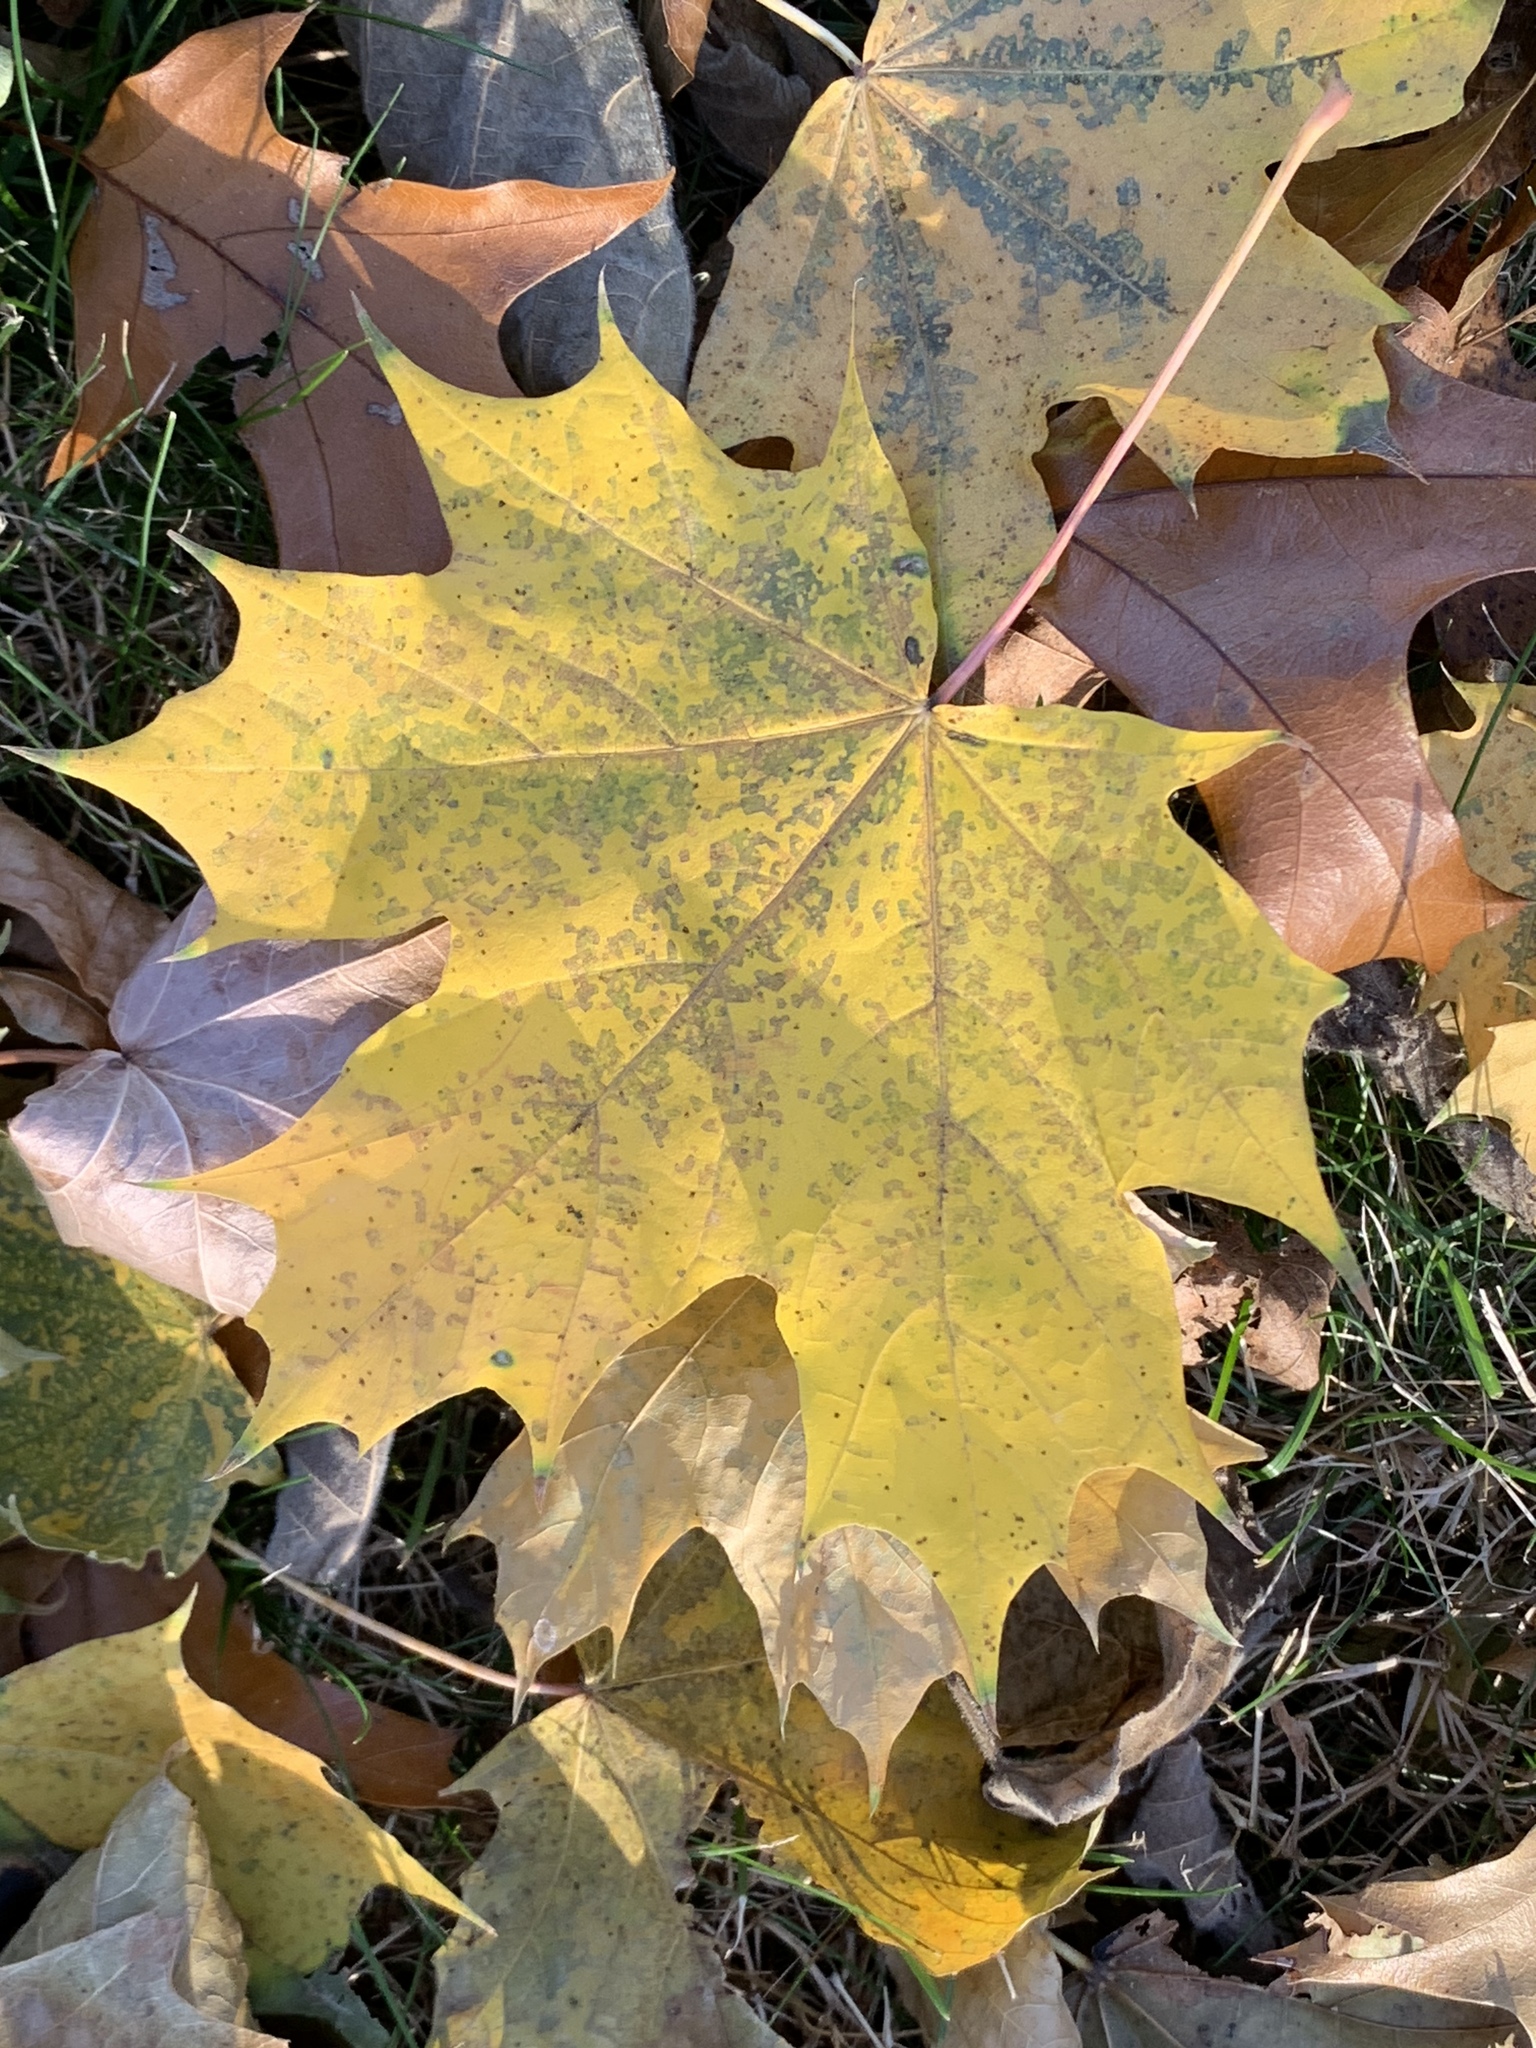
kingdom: Plantae
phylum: Tracheophyta
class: Magnoliopsida
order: Sapindales
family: Sapindaceae
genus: Acer
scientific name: Acer platanoides
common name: Norway maple
